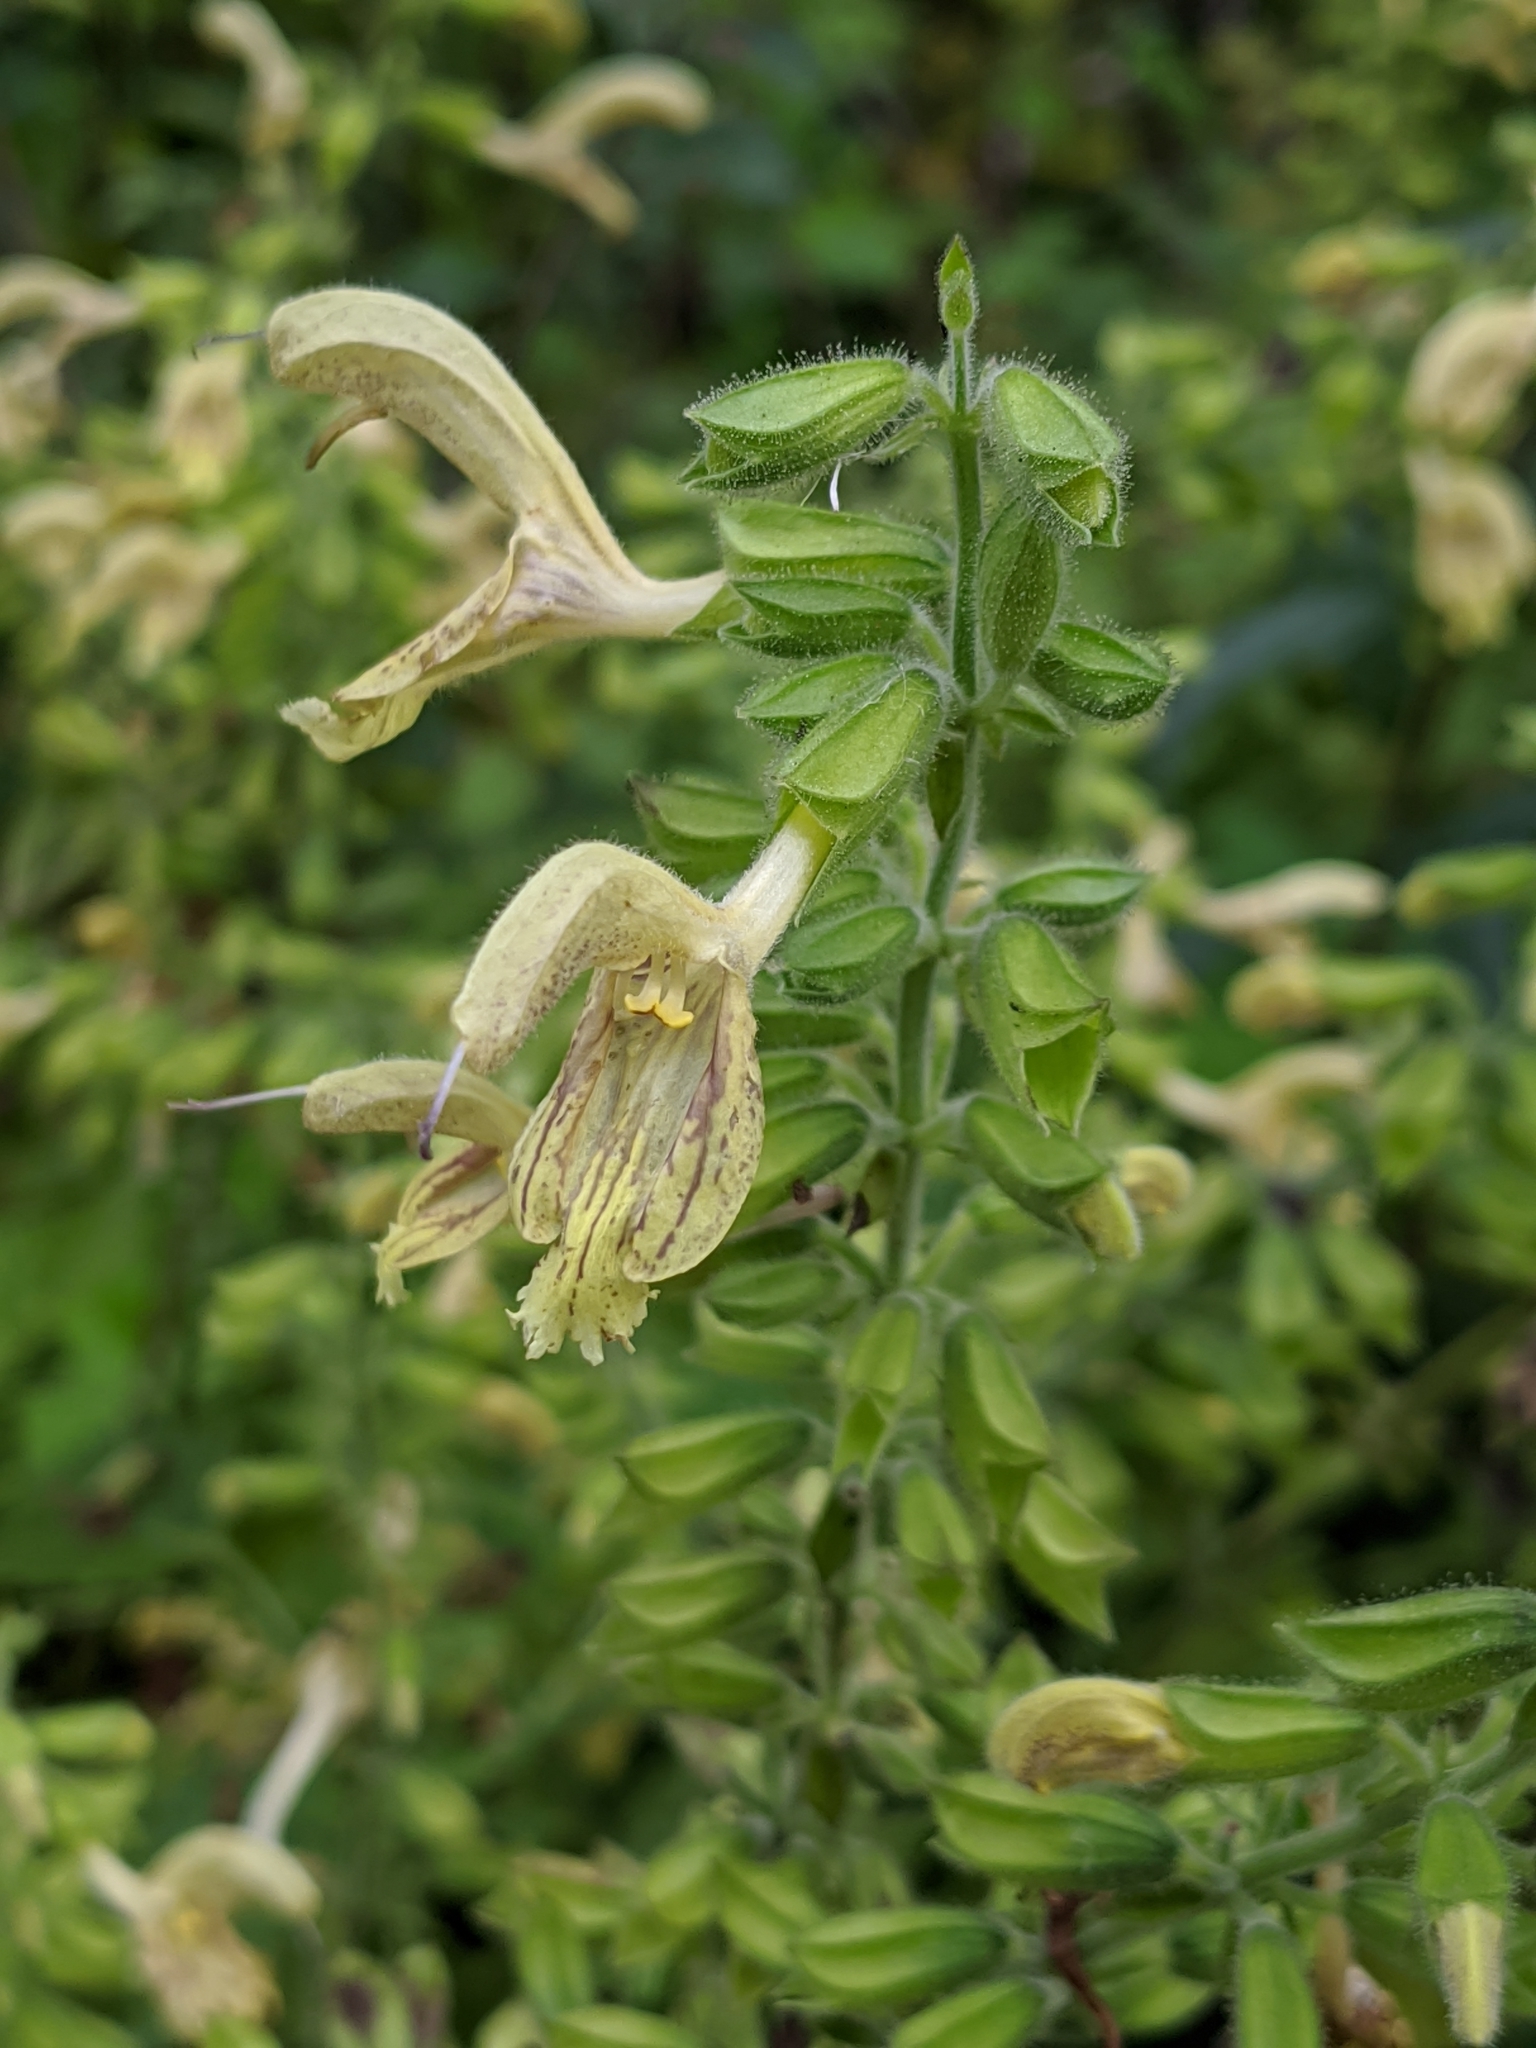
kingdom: Plantae
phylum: Tracheophyta
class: Magnoliopsida
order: Lamiales
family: Lamiaceae
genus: Salvia
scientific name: Salvia glutinosa
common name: Sticky clary
